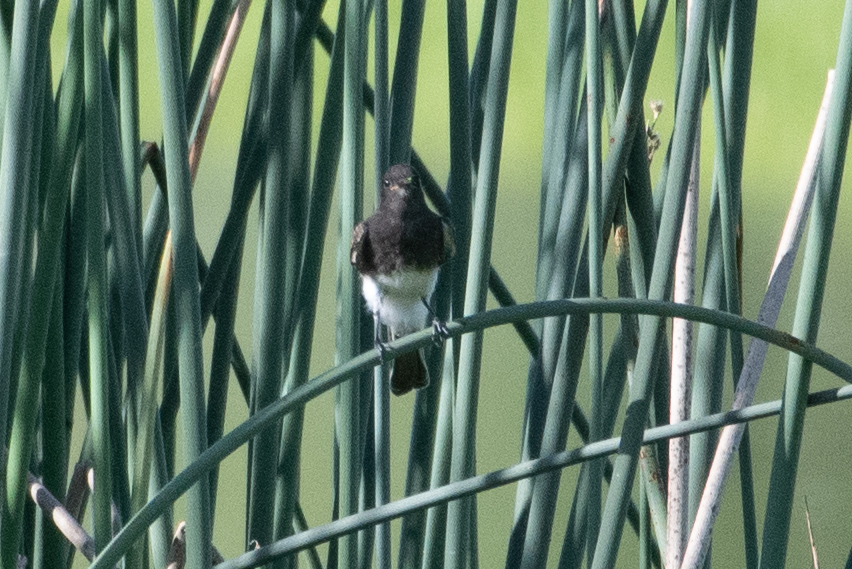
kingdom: Animalia
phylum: Chordata
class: Aves
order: Passeriformes
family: Tyrannidae
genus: Sayornis
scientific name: Sayornis nigricans
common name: Black phoebe
